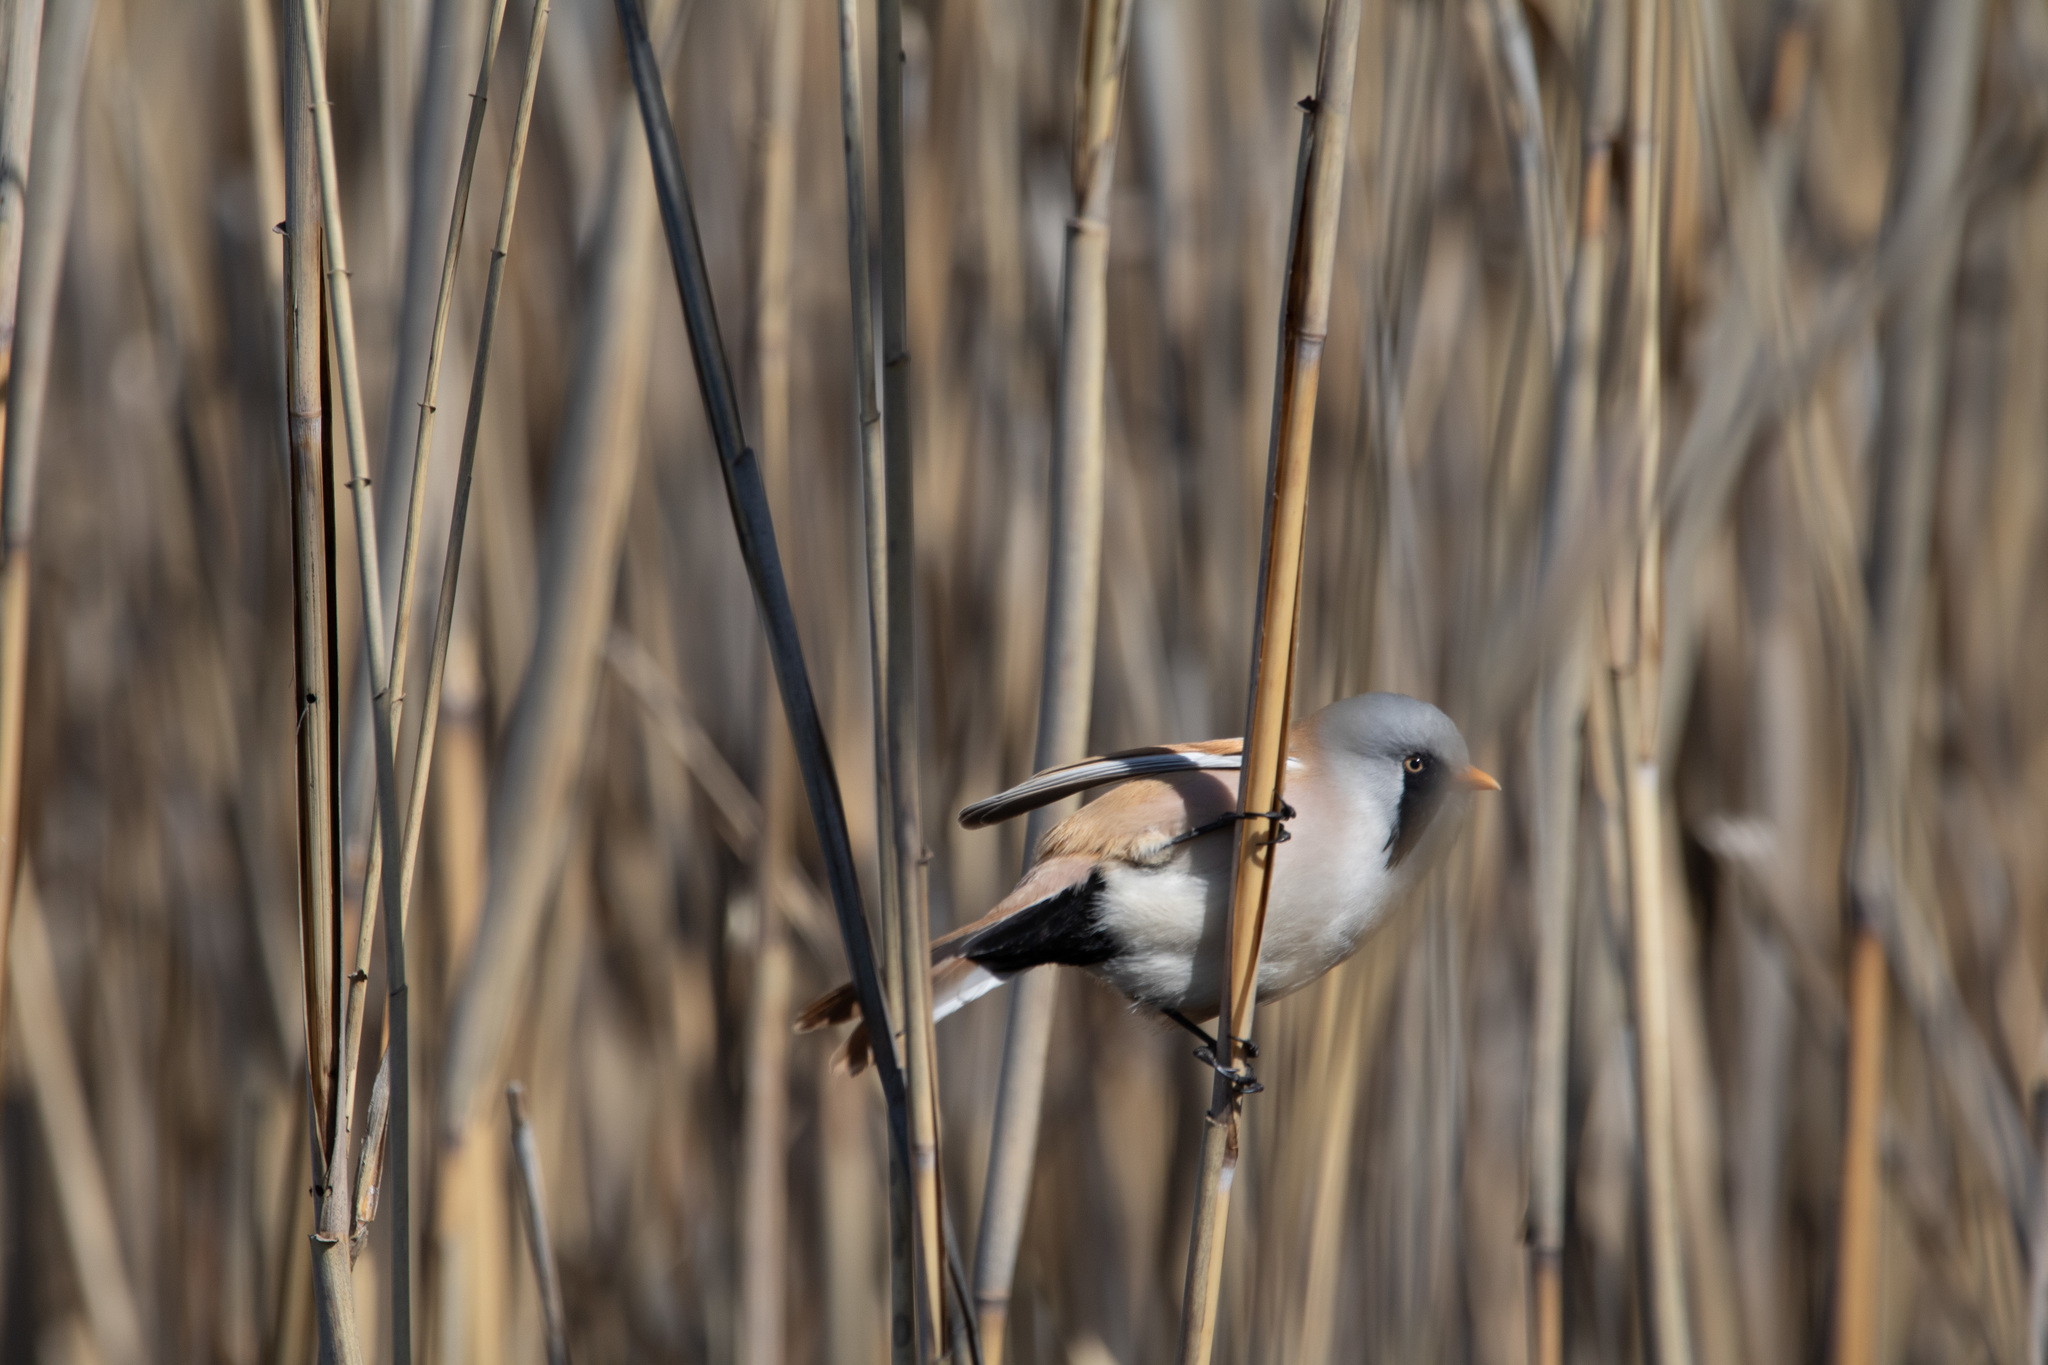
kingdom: Animalia
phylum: Chordata
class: Aves
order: Passeriformes
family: Panuridae
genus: Panurus
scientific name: Panurus biarmicus
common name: Bearded reedling
